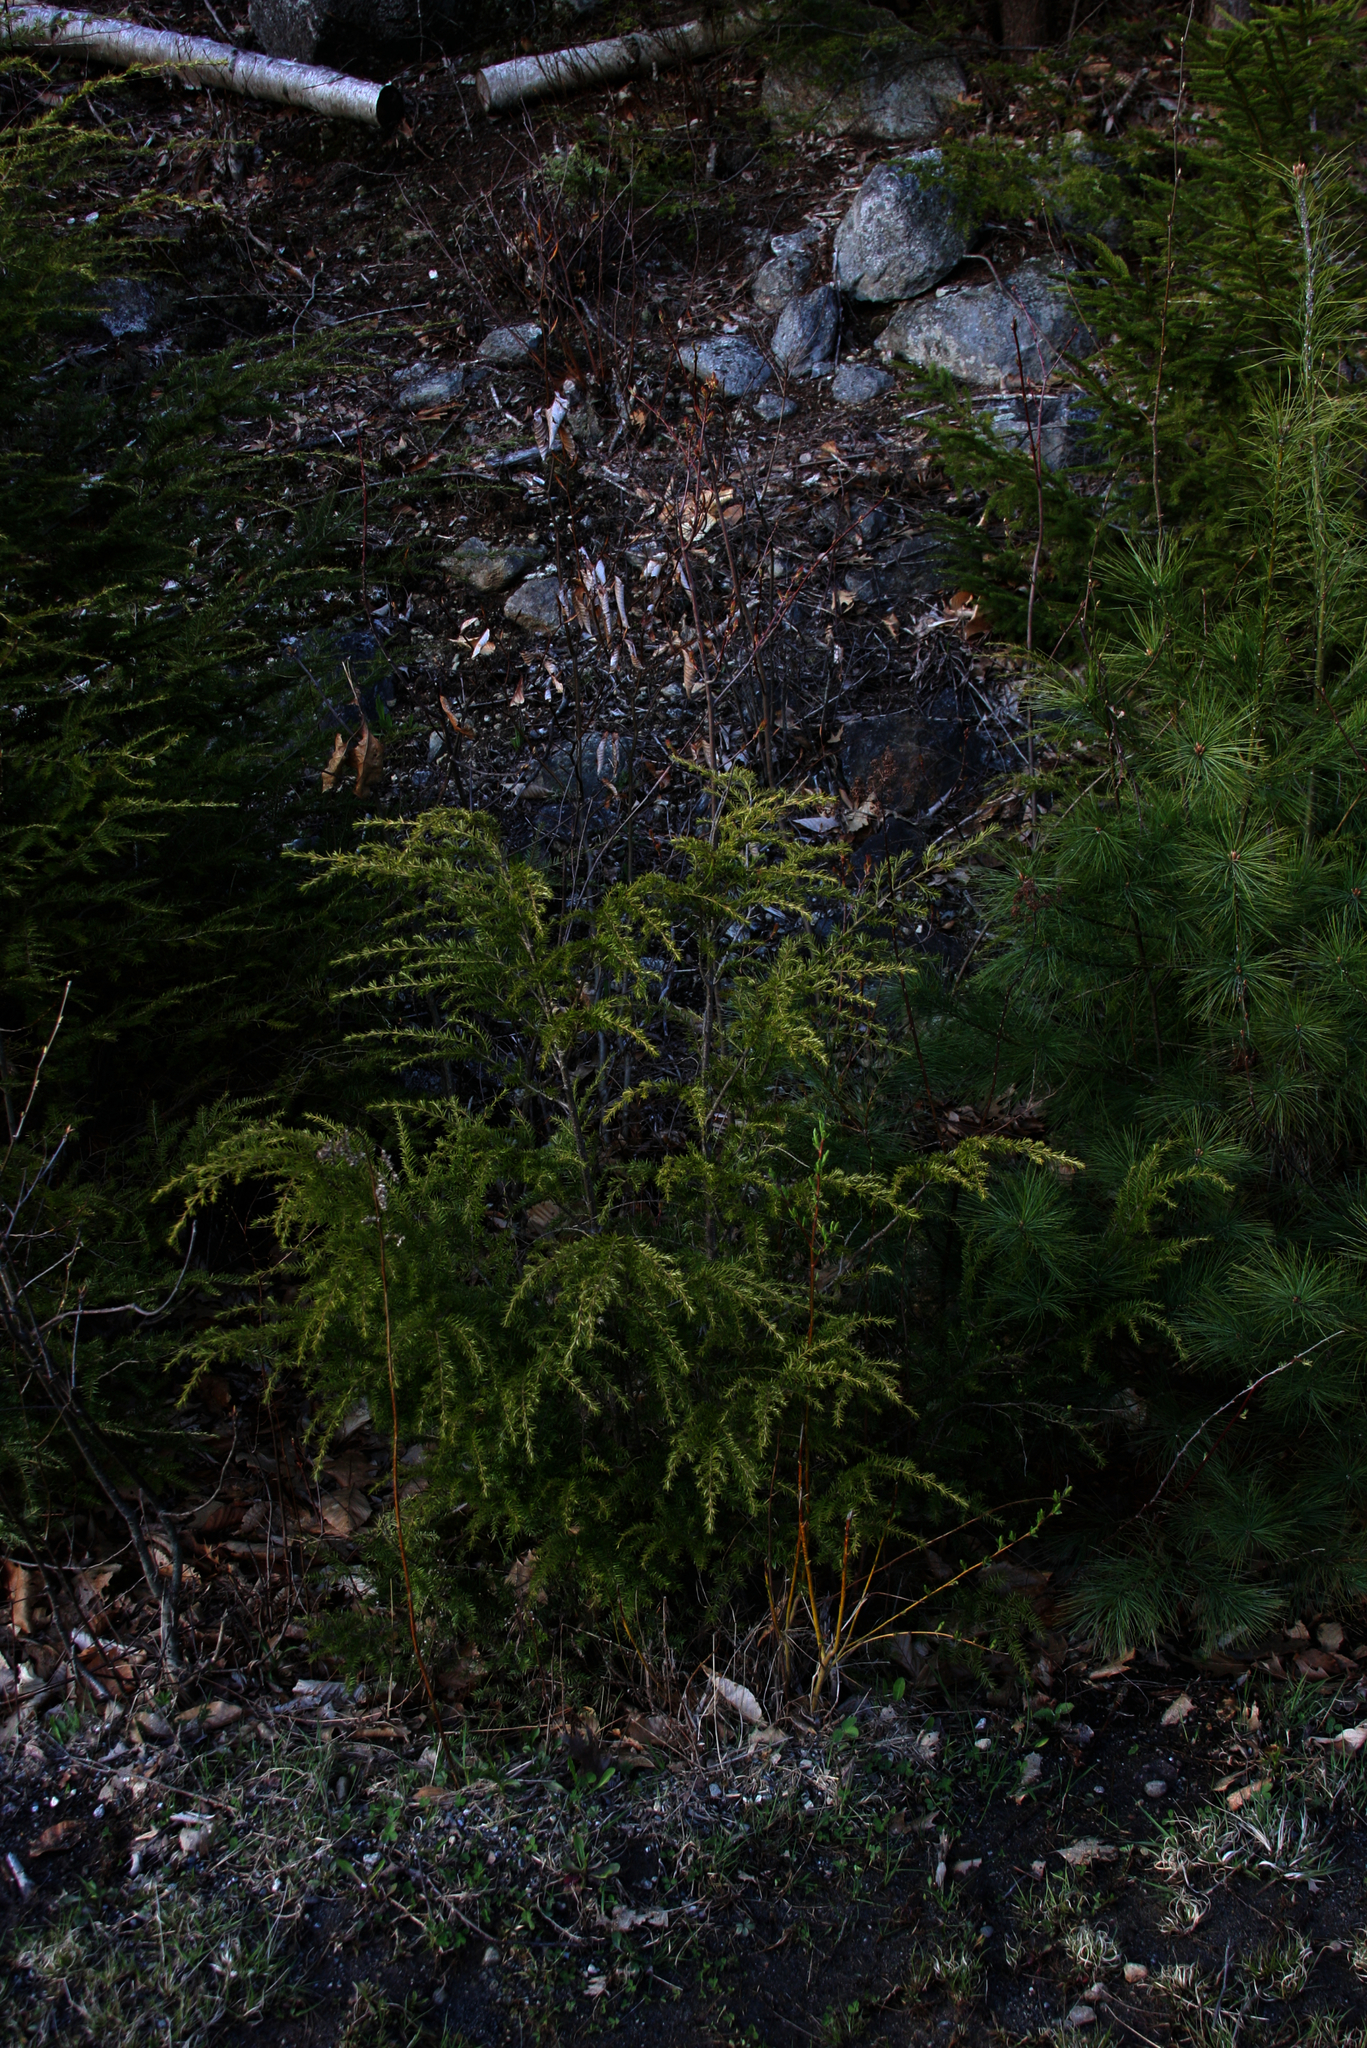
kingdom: Plantae
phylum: Tracheophyta
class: Pinopsida
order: Pinales
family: Pinaceae
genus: Tsuga
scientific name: Tsuga canadensis
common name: Eastern hemlock
